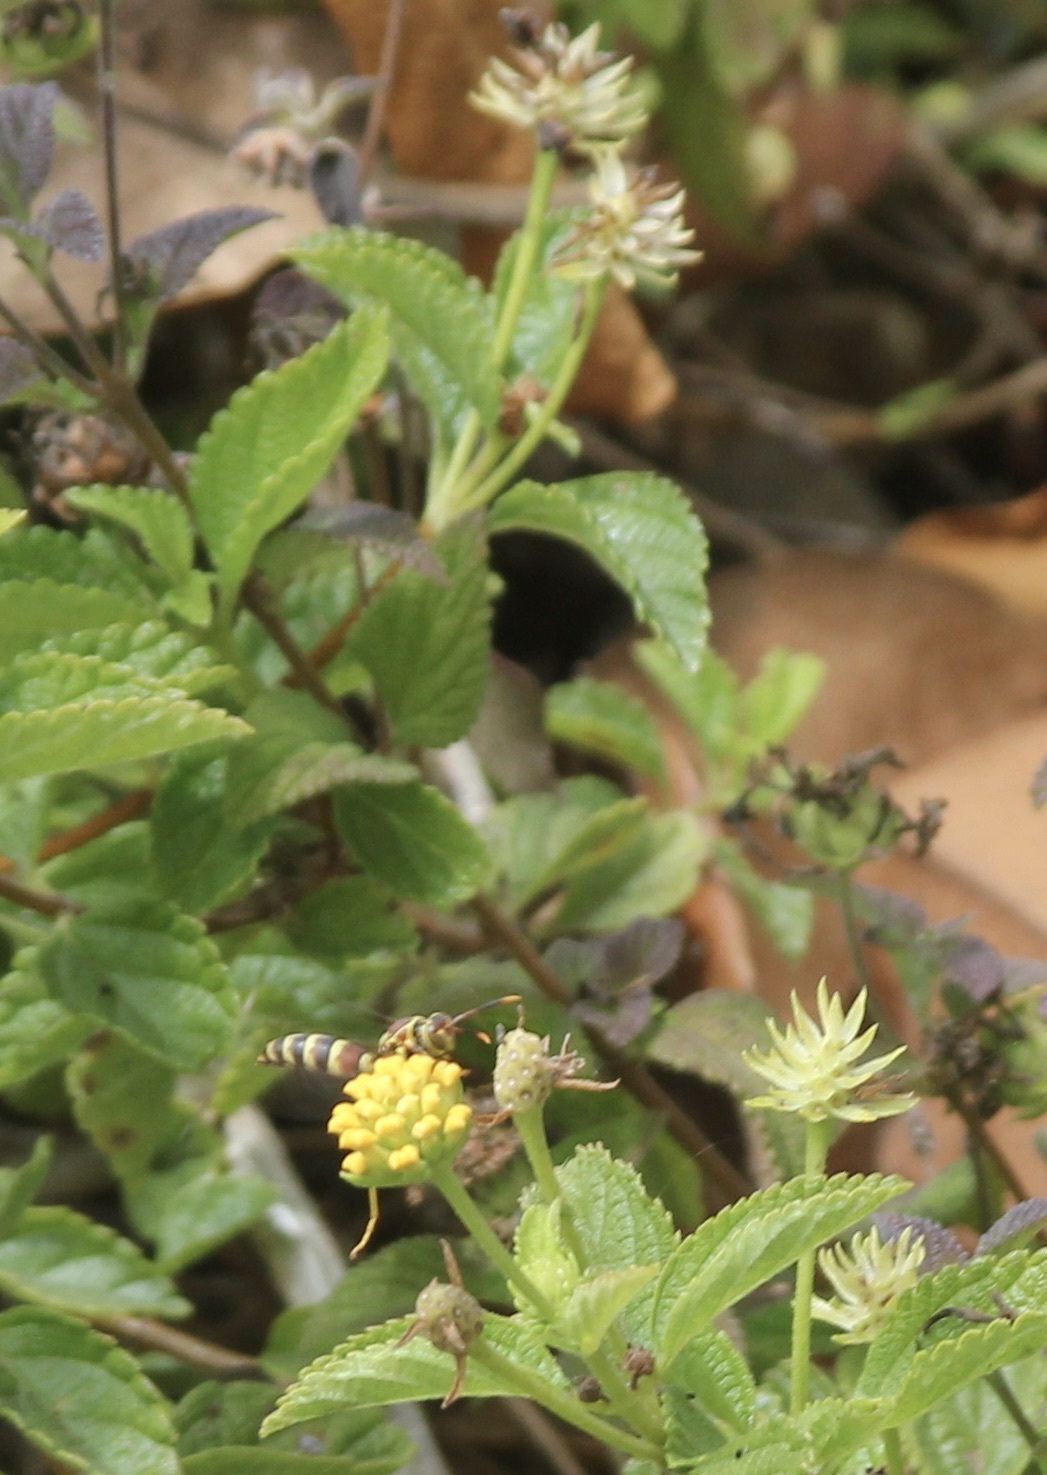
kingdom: Animalia
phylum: Arthropoda
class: Insecta
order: Hymenoptera
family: Eumenidae
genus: Polistes
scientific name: Polistes exclamans
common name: Paper wasp
